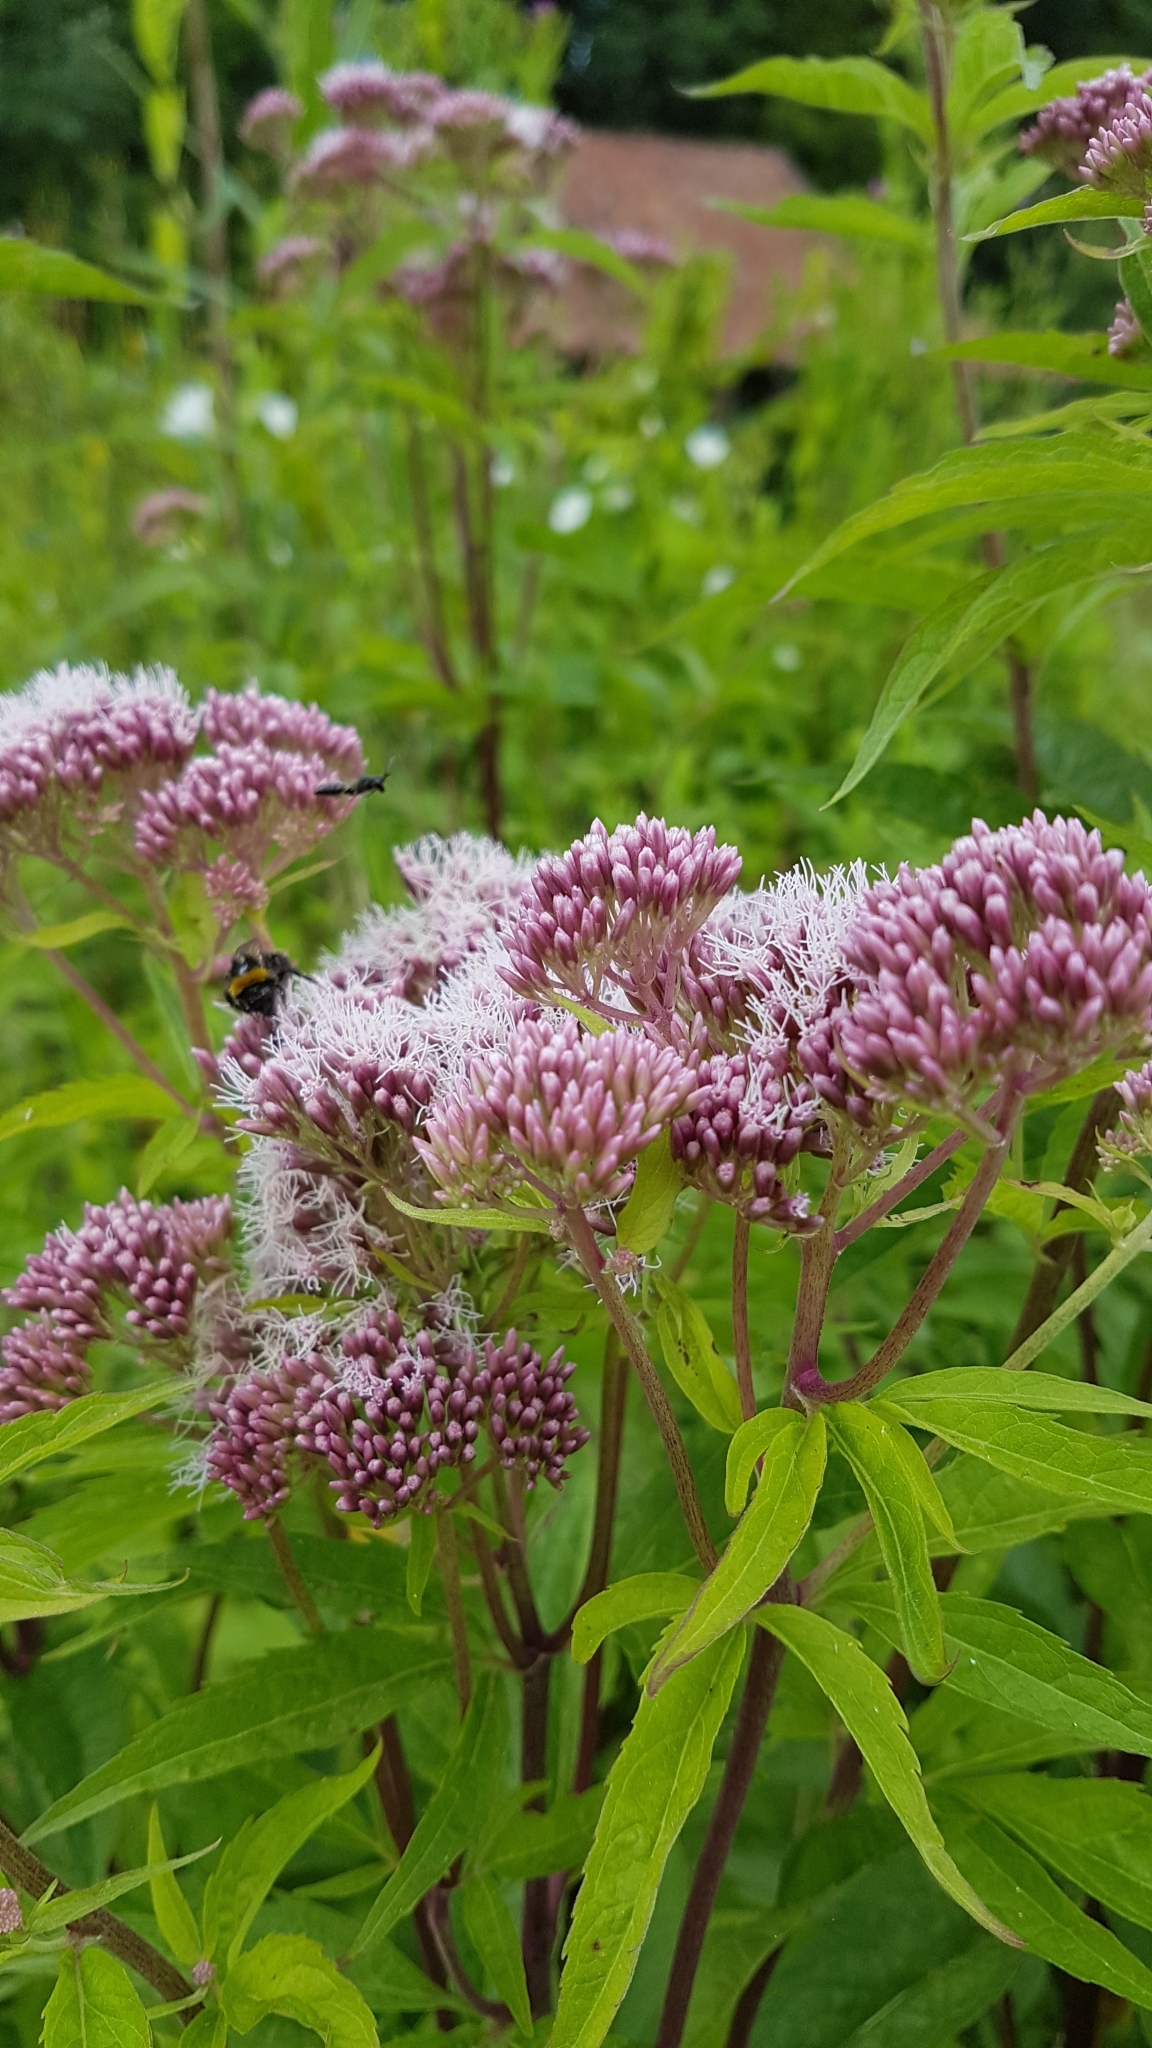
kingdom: Plantae
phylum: Tracheophyta
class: Magnoliopsida
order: Asterales
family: Asteraceae
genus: Eupatorium
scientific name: Eupatorium cannabinum
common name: Hemp-agrimony
